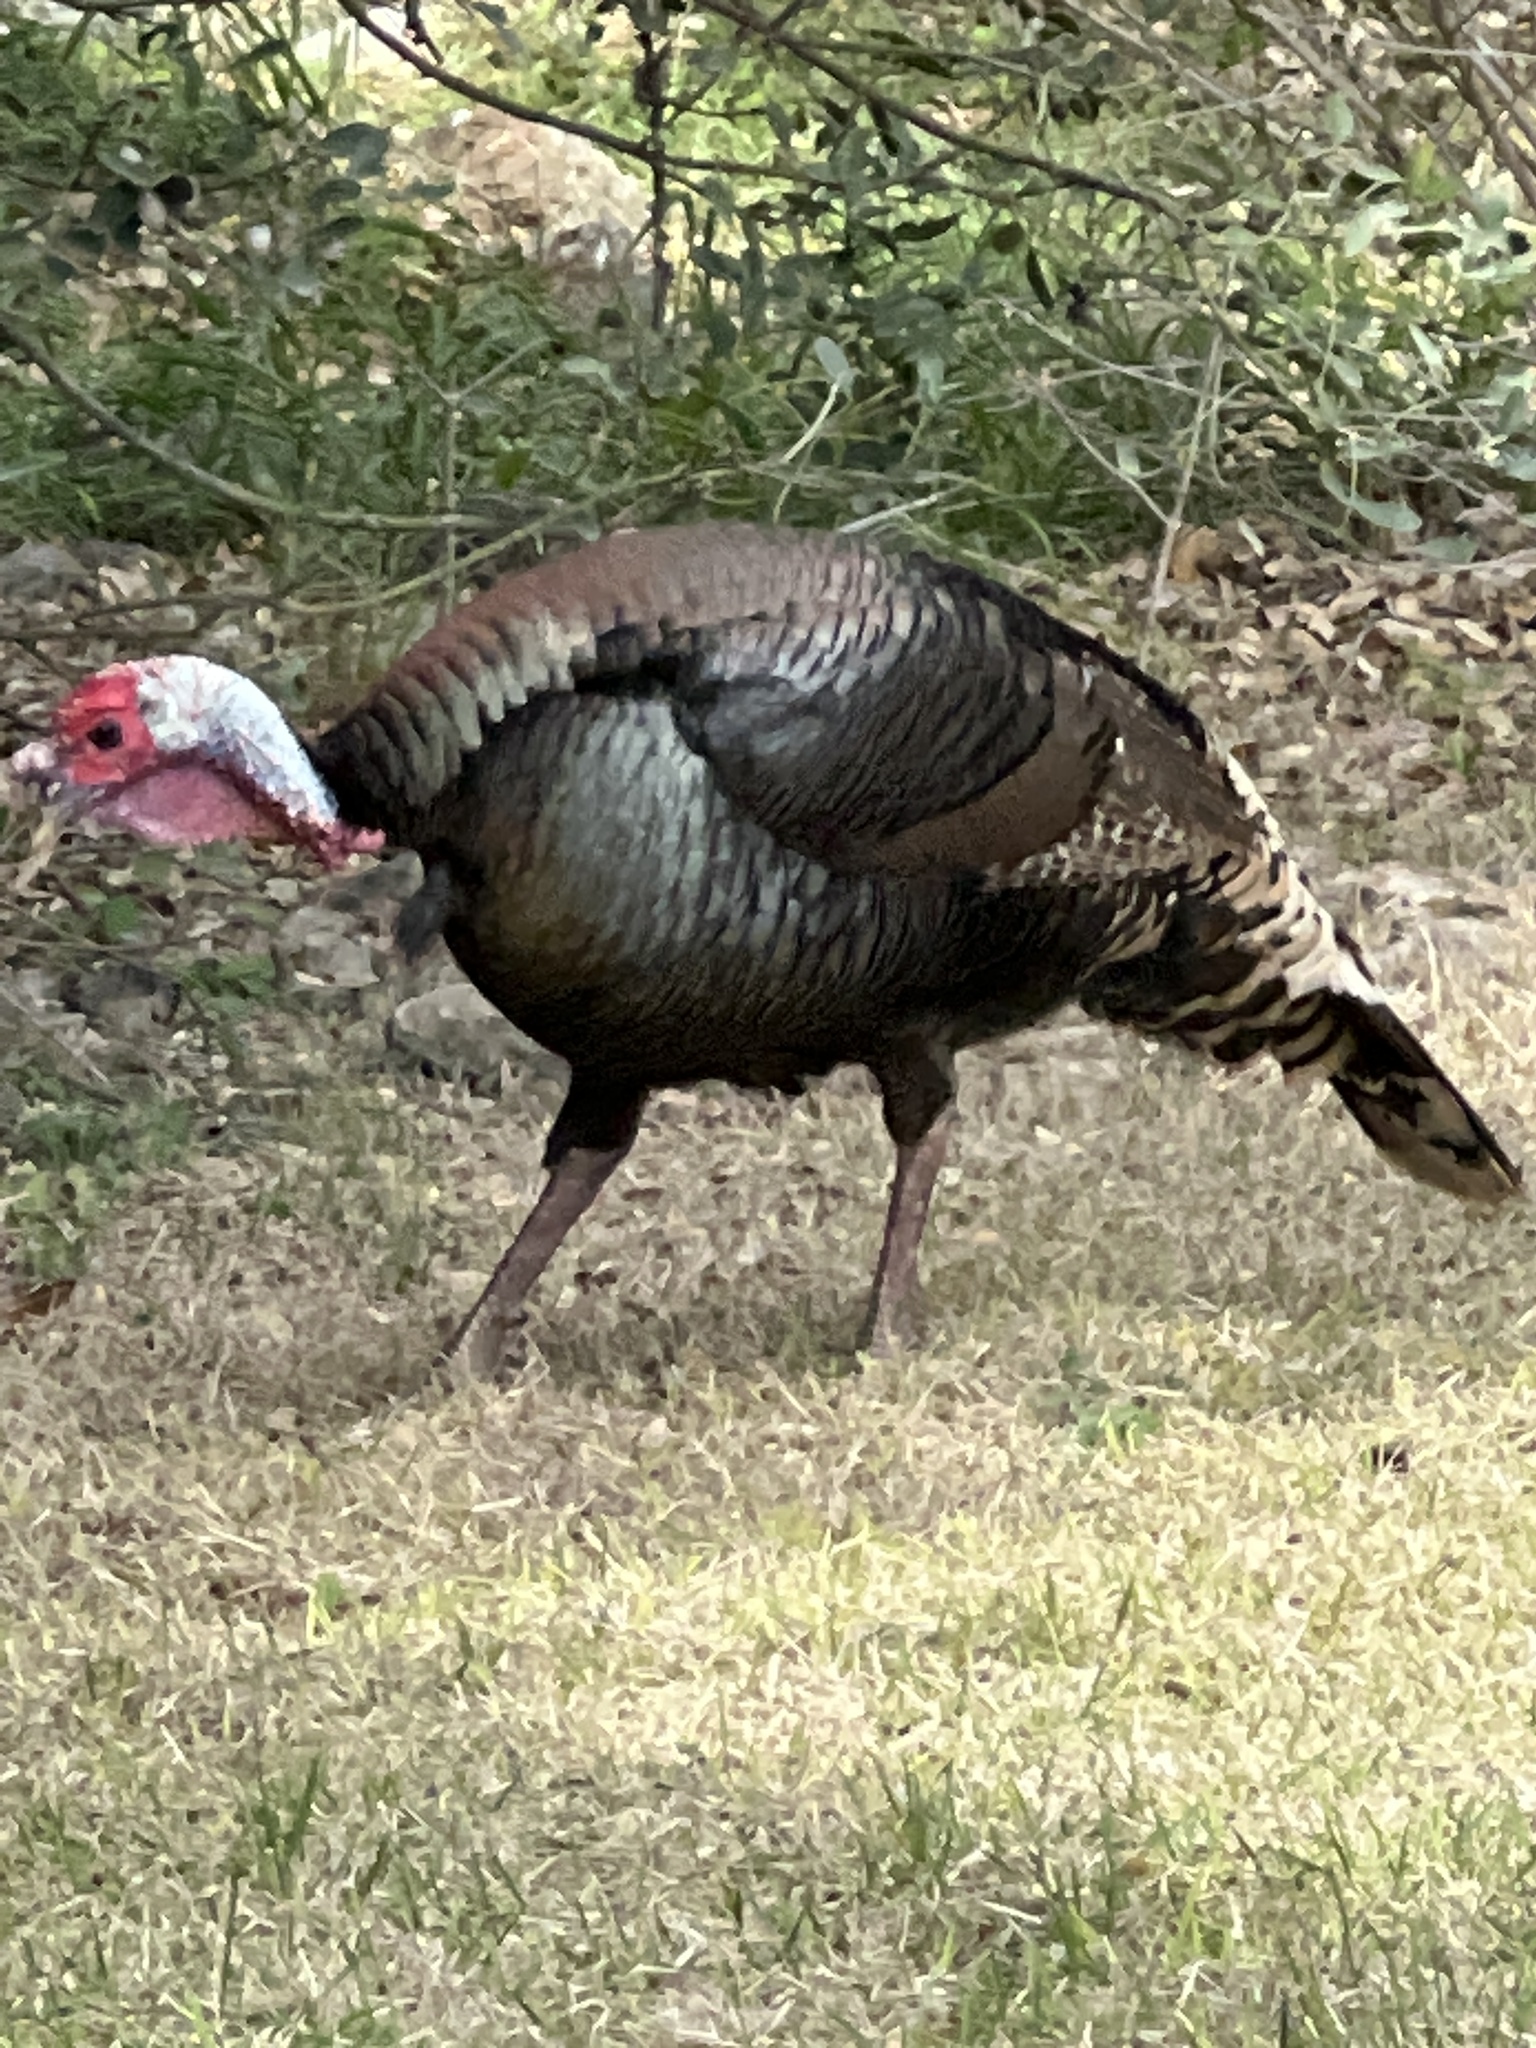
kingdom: Animalia
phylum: Chordata
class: Aves
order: Galliformes
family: Phasianidae
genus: Meleagris
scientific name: Meleagris gallopavo
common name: Wild turkey
